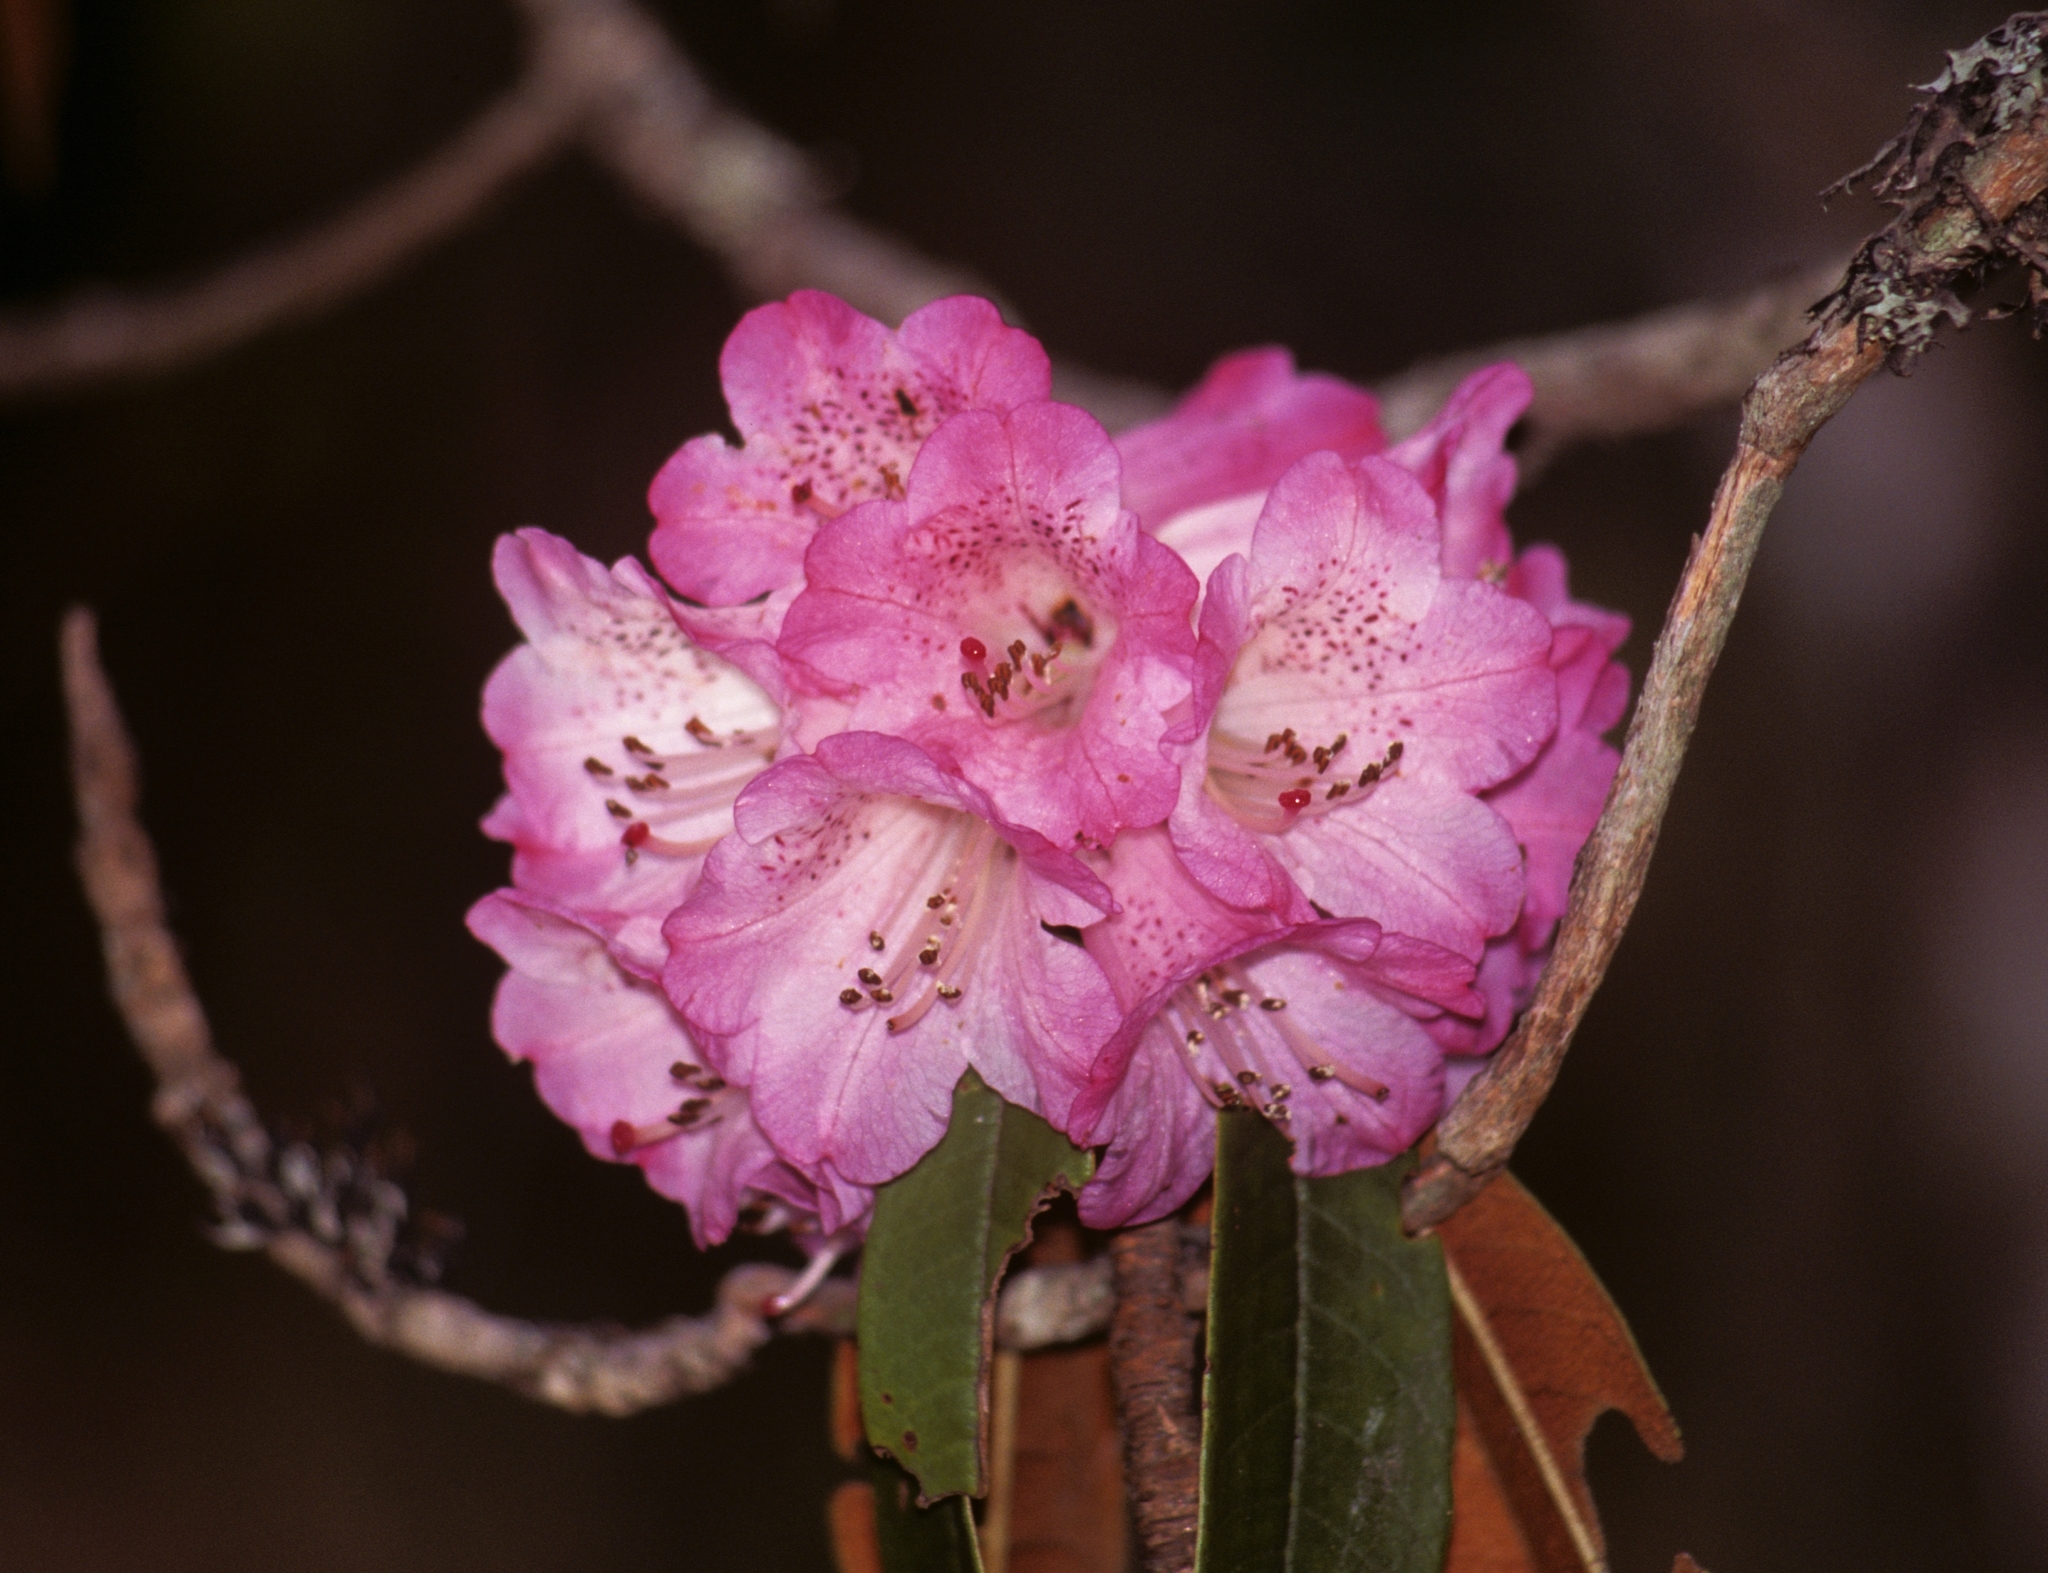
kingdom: Plantae
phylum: Tracheophyta
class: Magnoliopsida
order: Ericales
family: Ericaceae
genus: Rhododendron
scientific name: Rhododendron arboreum
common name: Tree rhododendron
